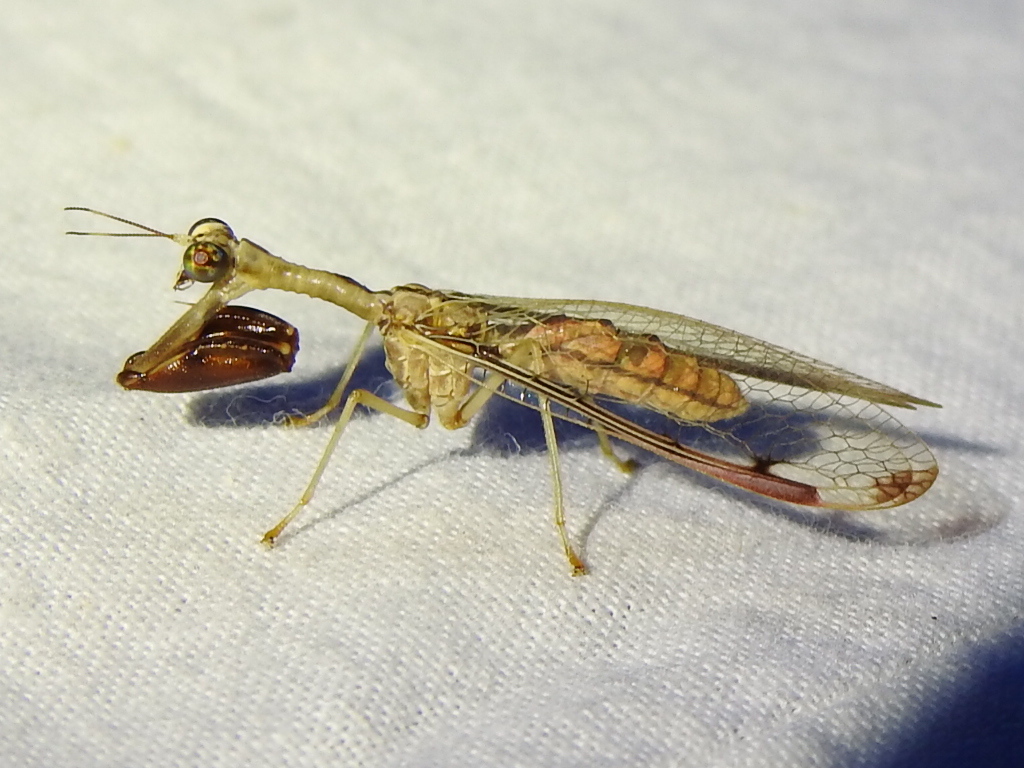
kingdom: Animalia
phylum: Arthropoda
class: Insecta
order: Neuroptera
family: Mantispidae
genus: Dicromantispa
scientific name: Dicromantispa interrupta
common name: Four-spotted mantidfly
